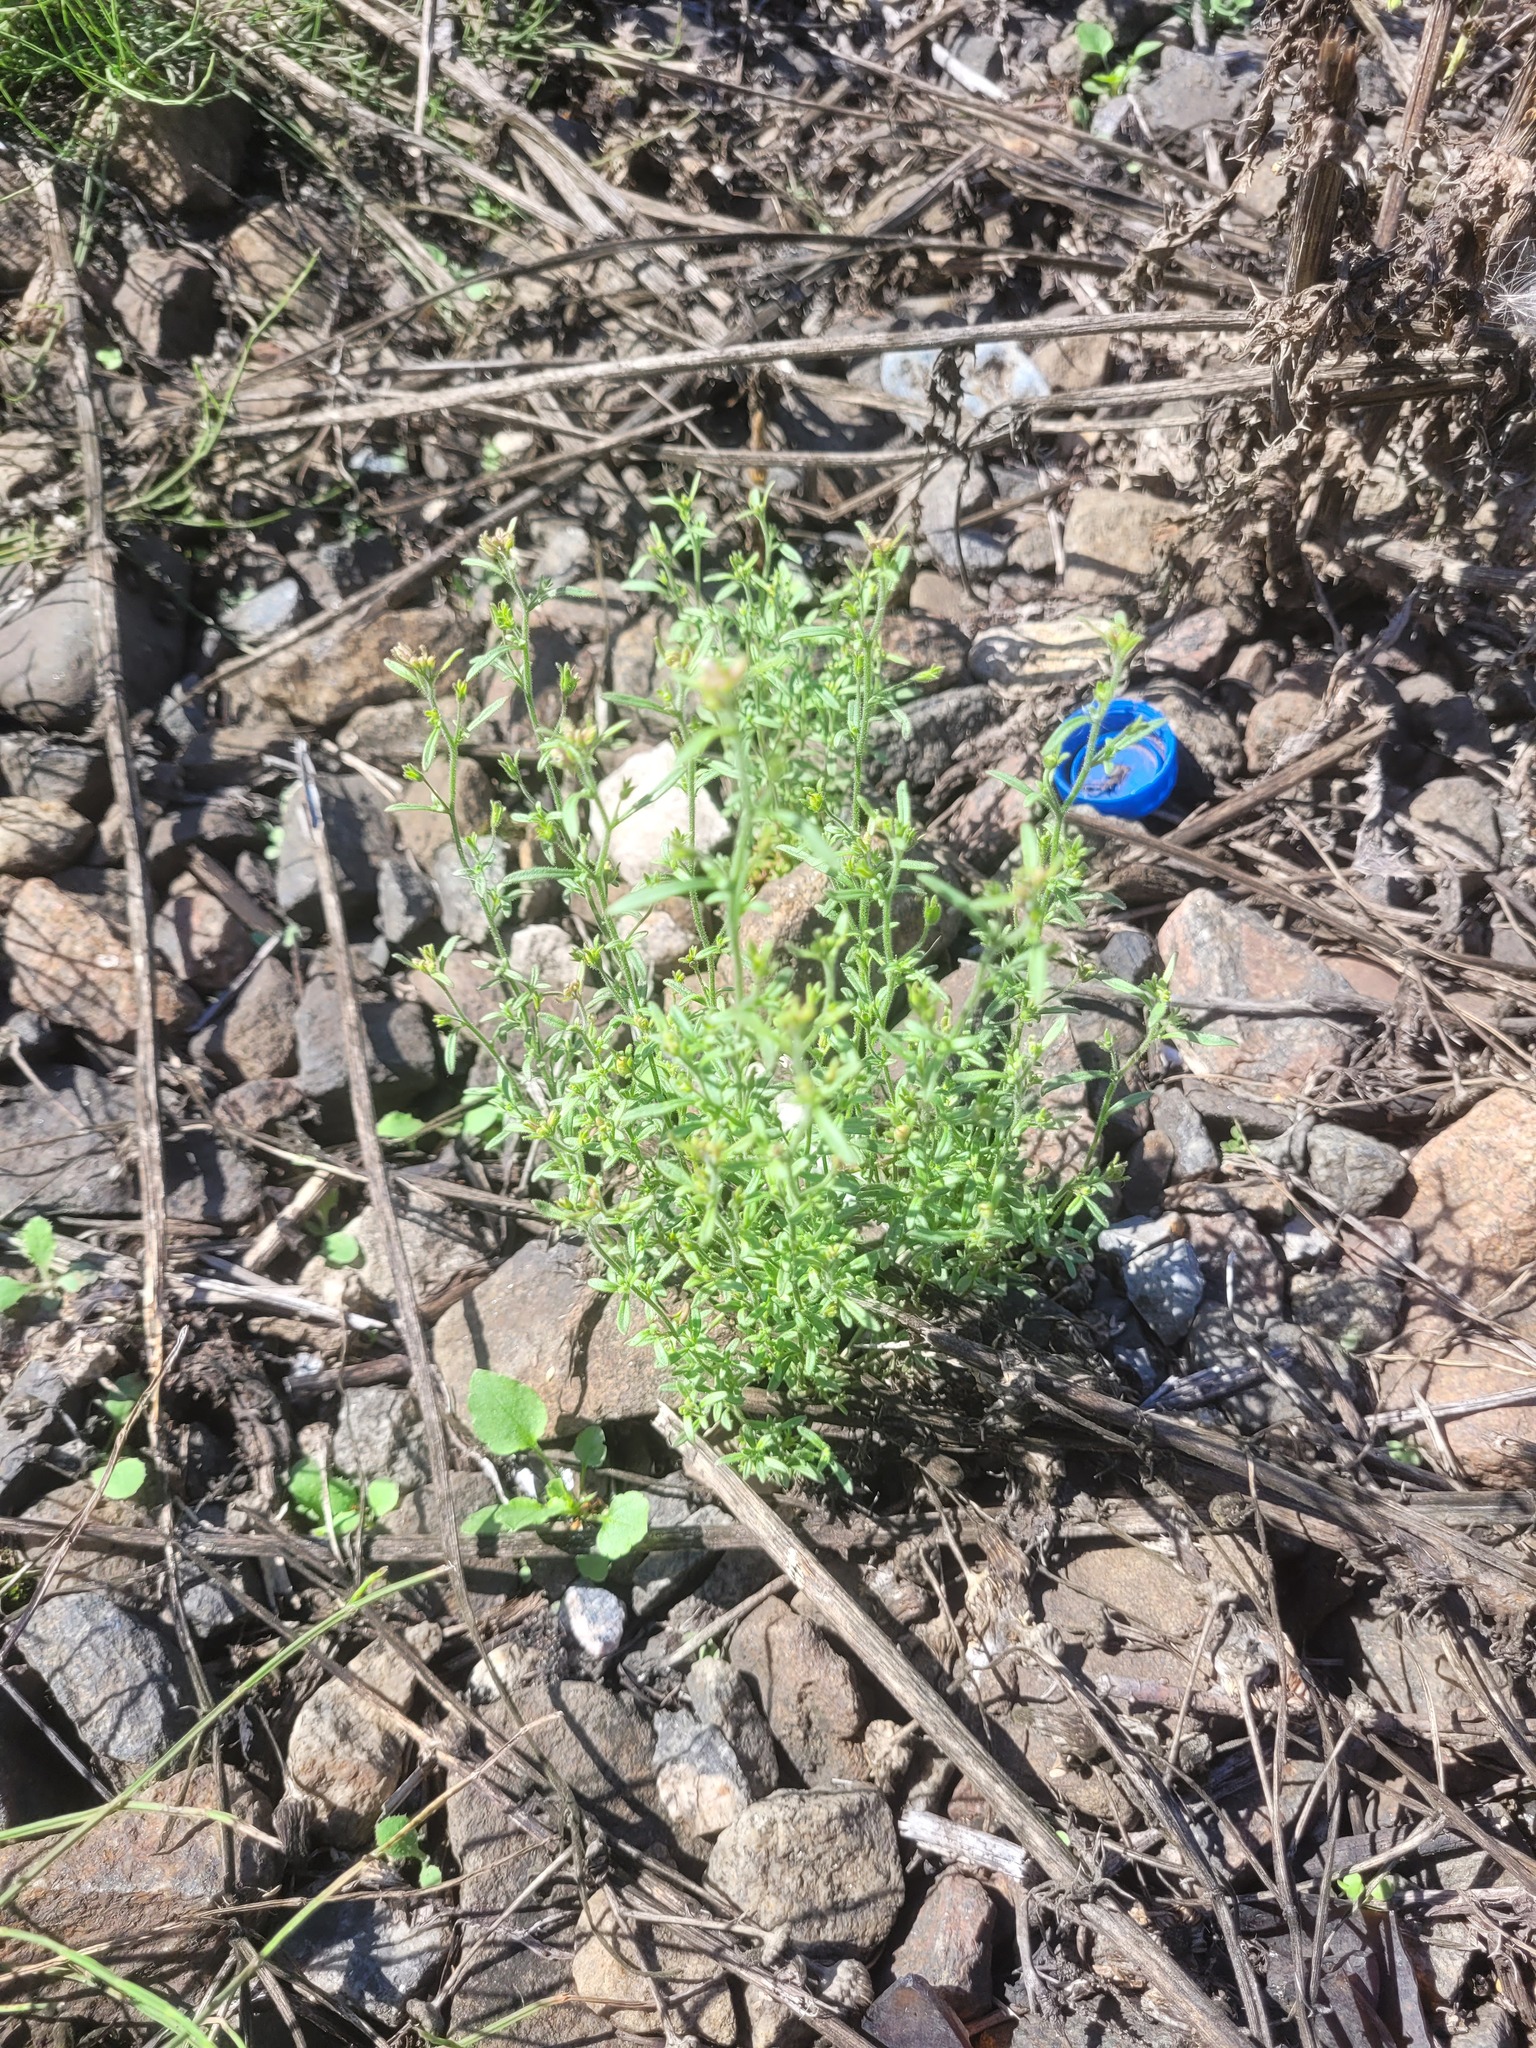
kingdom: Plantae
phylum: Tracheophyta
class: Magnoliopsida
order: Lamiales
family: Plantaginaceae
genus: Chaenorhinum
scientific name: Chaenorhinum minus
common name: Dwarf snapdragon
